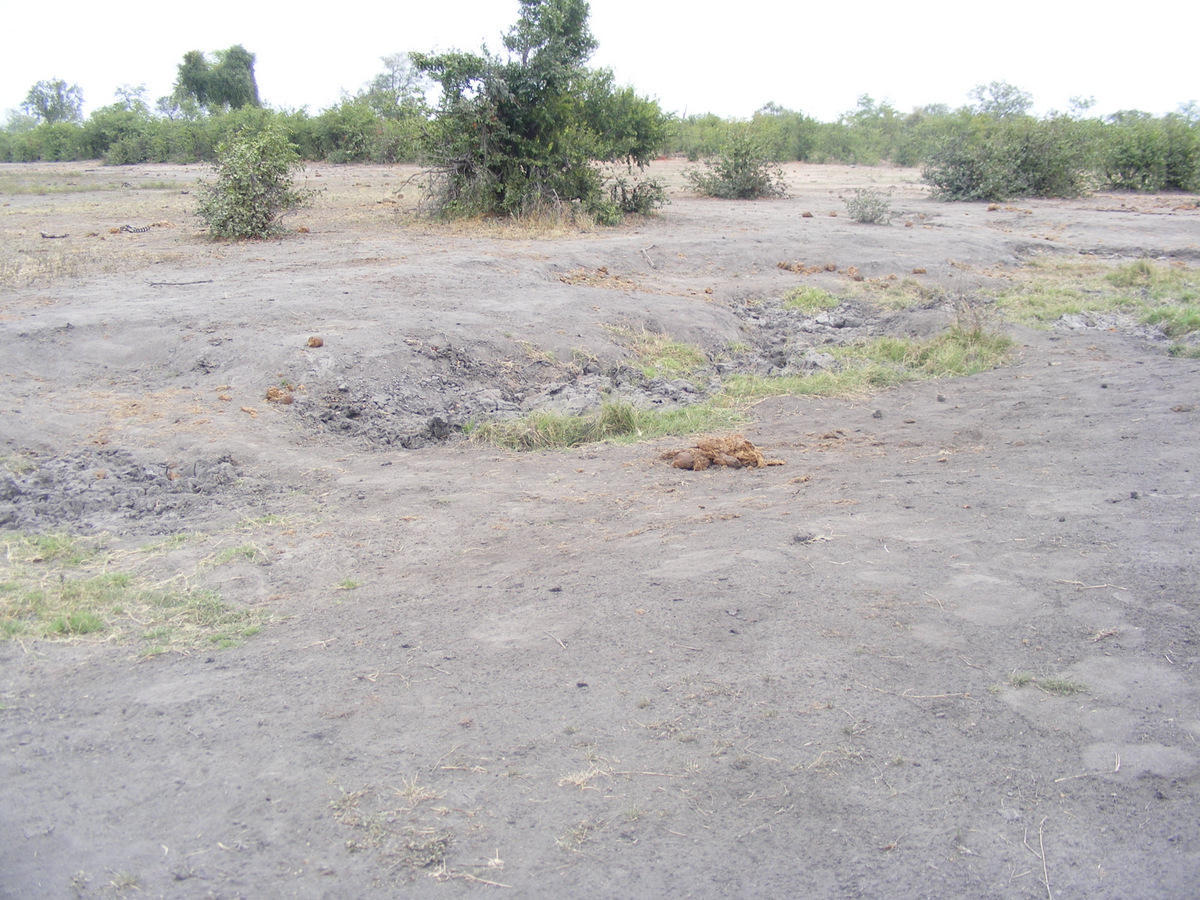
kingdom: Plantae
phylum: Tracheophyta
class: Liliopsida
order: Poales
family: Poaceae
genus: Phragmites
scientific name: Phragmites mauritianus
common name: Reed grass
